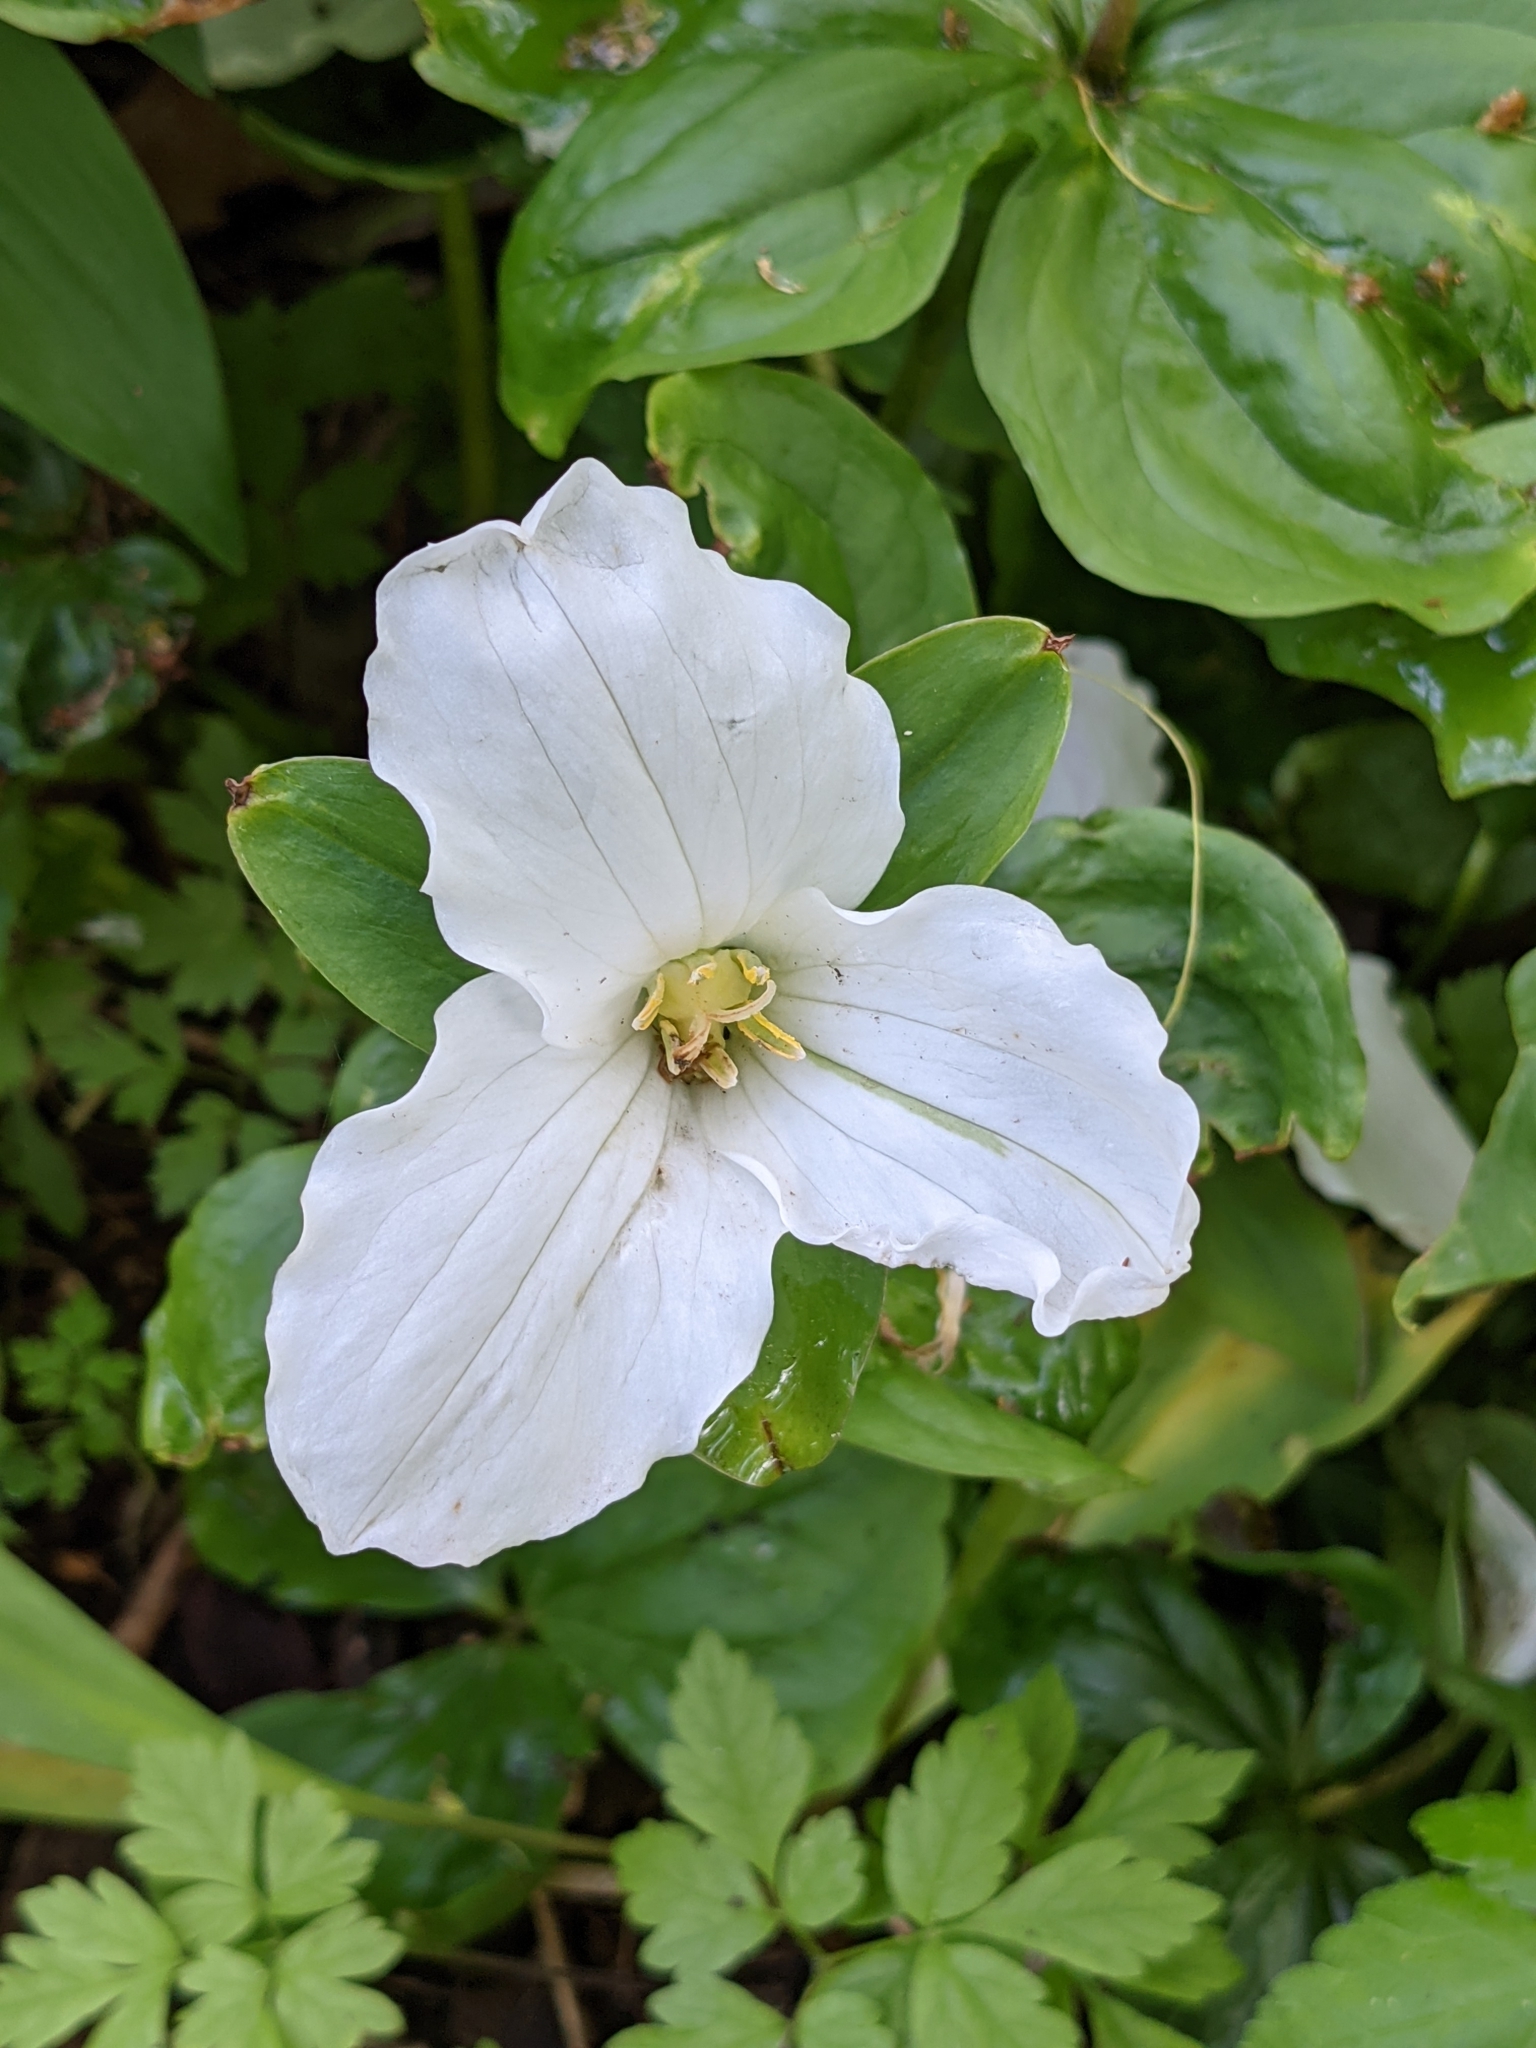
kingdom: Plantae
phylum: Tracheophyta
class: Liliopsida
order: Liliales
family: Melanthiaceae
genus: Trillium
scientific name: Trillium grandiflorum
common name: Great white trillium
